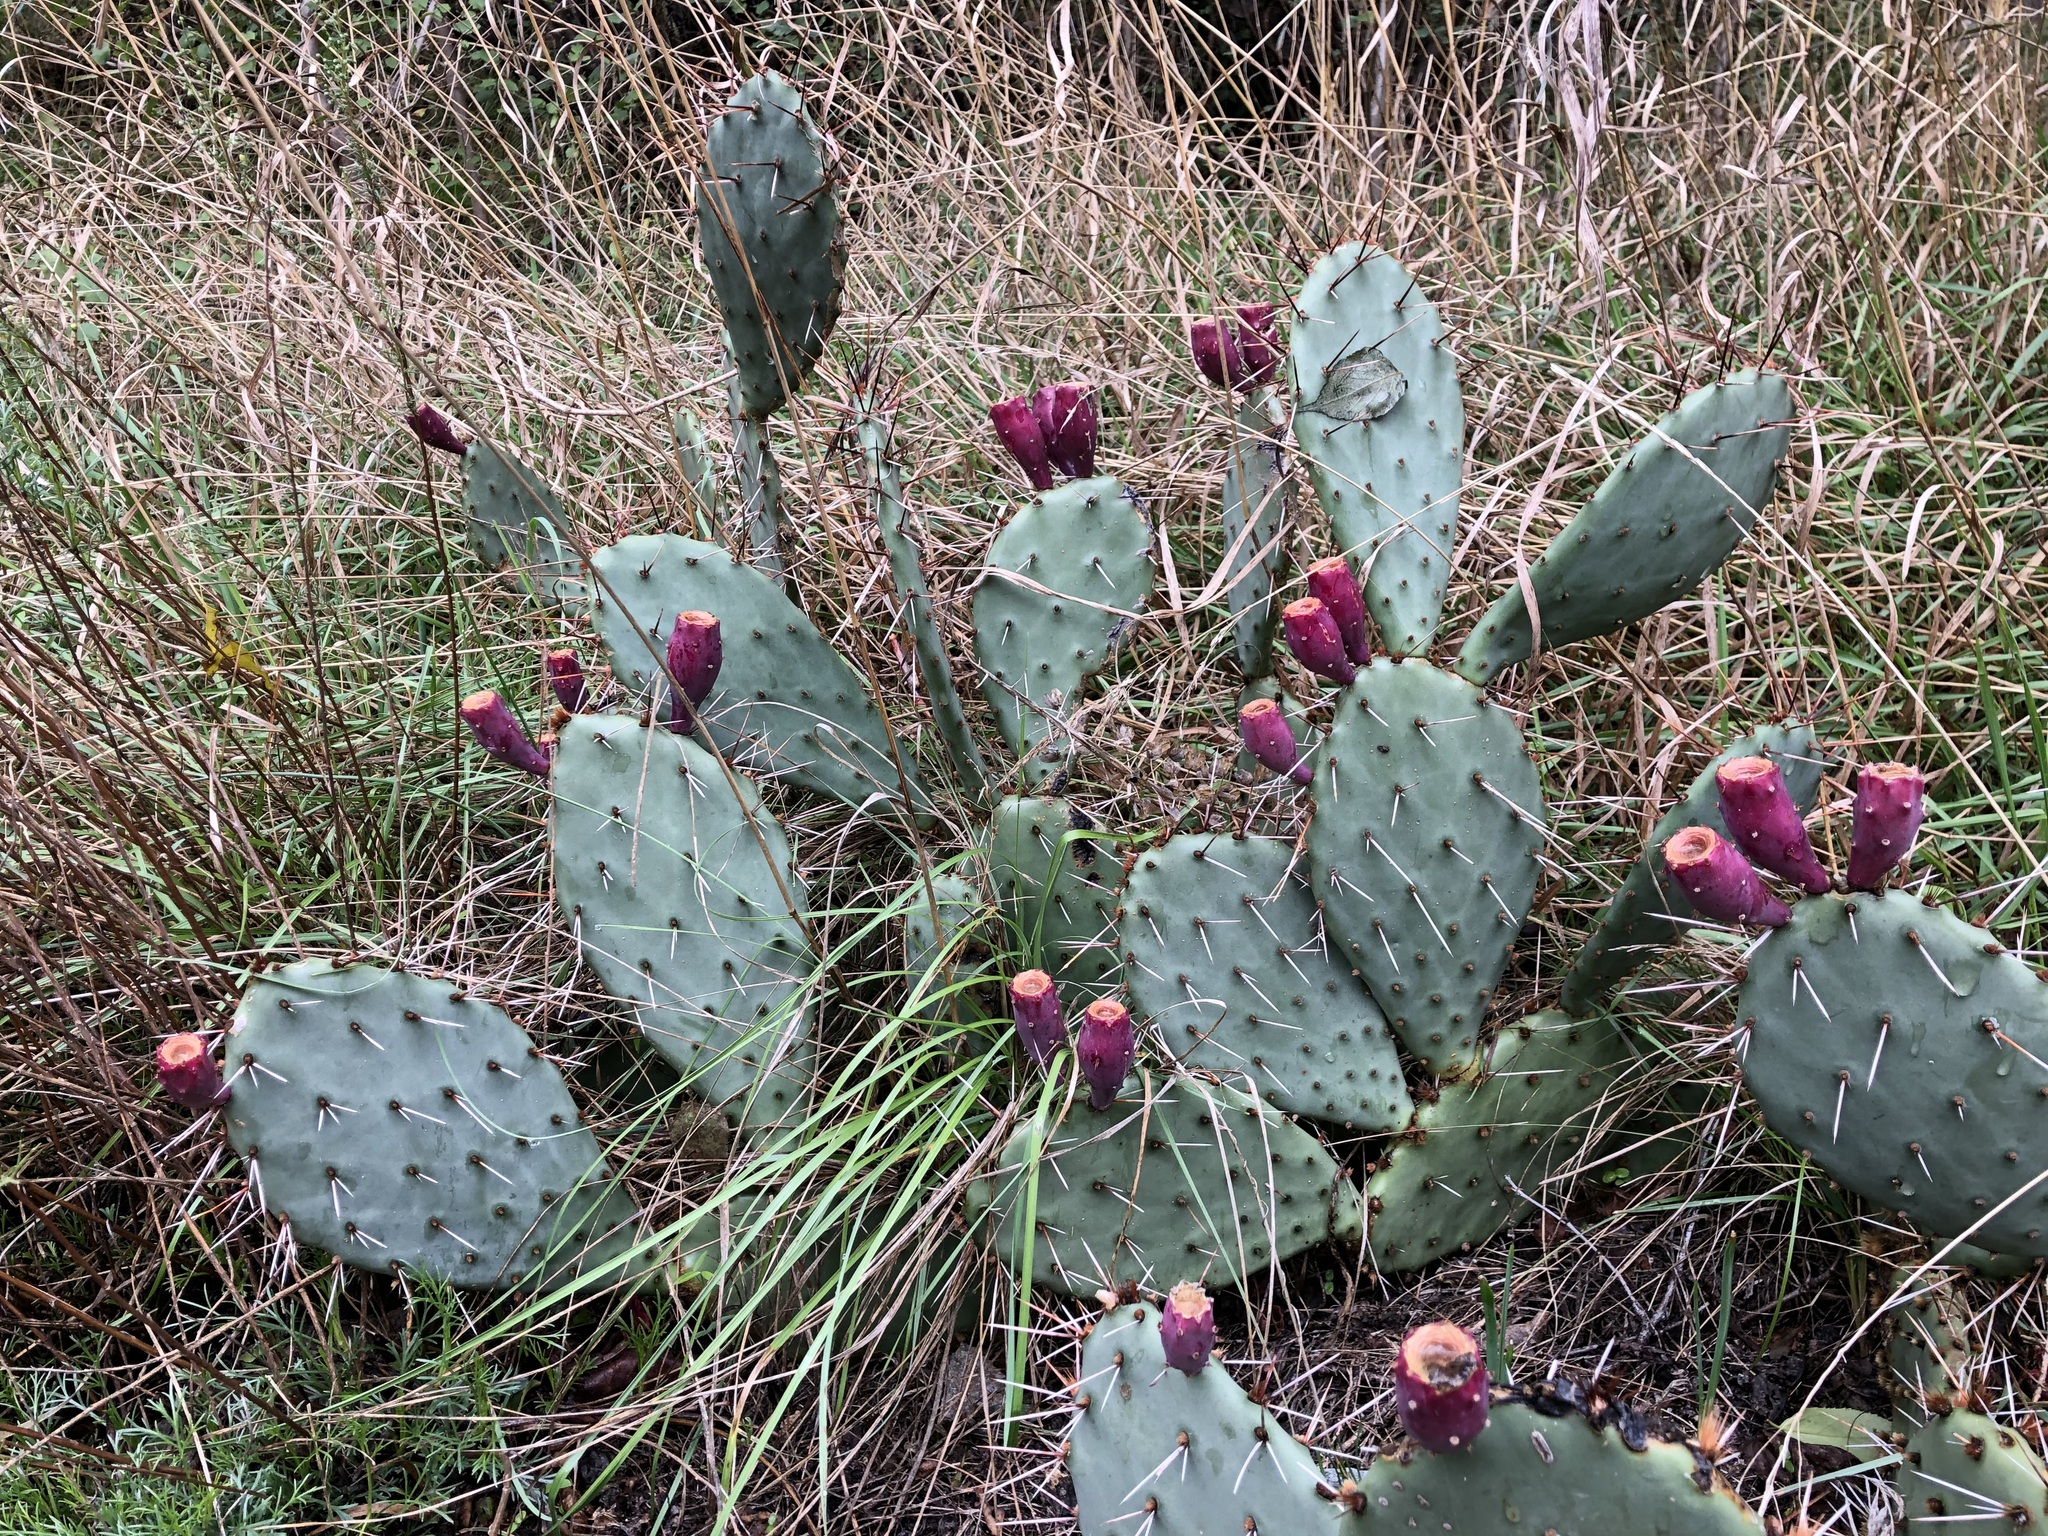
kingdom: Plantae
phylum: Tracheophyta
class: Magnoliopsida
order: Caryophyllales
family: Cactaceae
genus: Opuntia
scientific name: Opuntia phaeacantha
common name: New mexico prickly-pear
